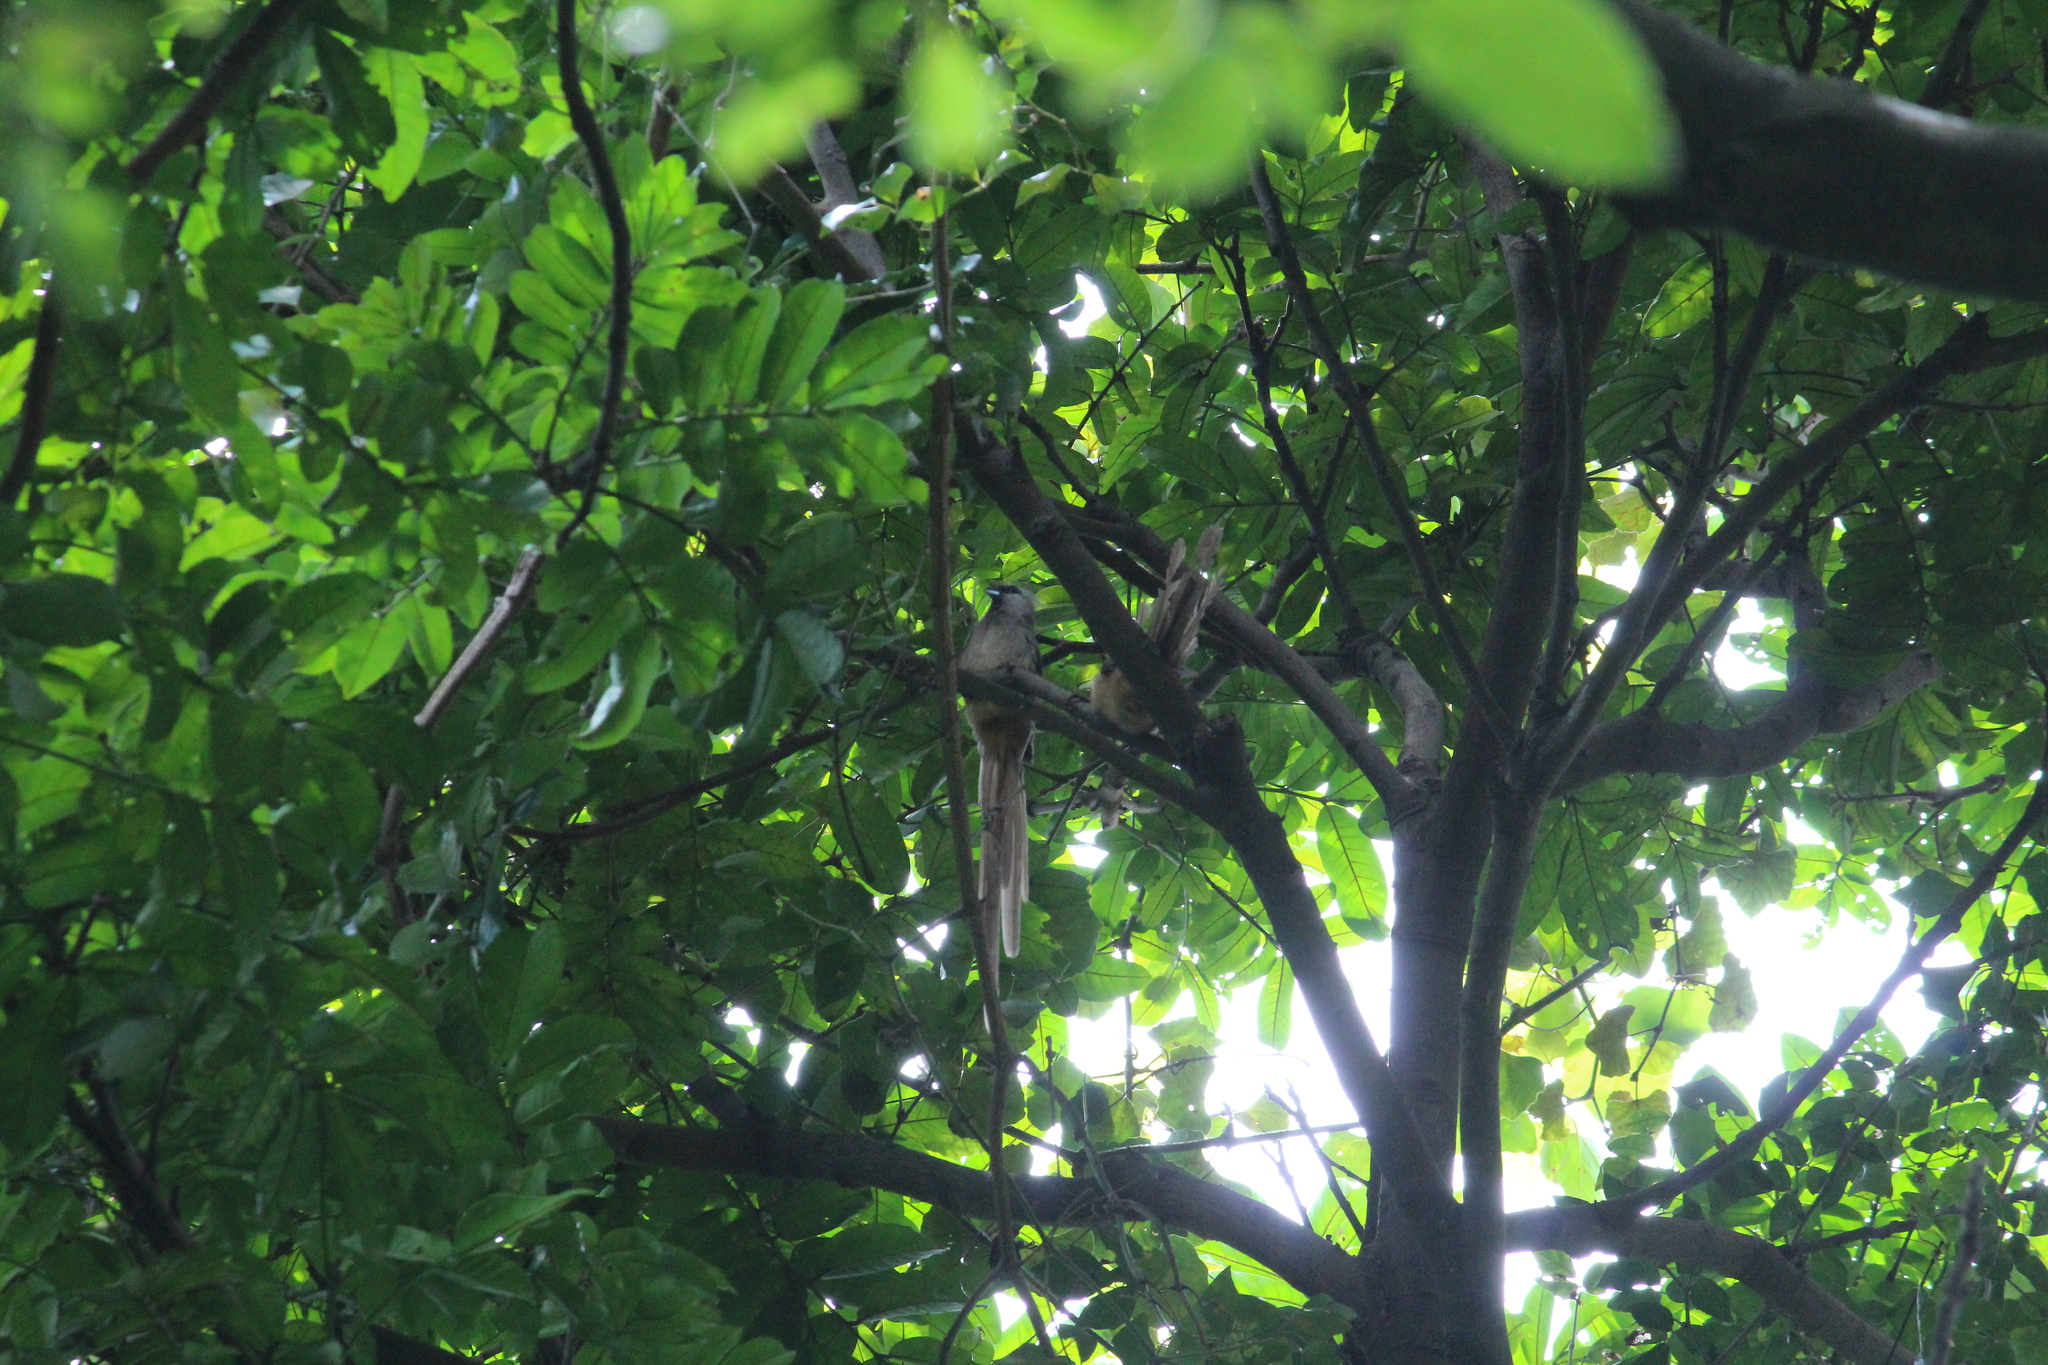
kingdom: Animalia
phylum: Chordata
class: Aves
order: Coliiformes
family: Coliidae
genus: Colius
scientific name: Colius striatus
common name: Speckled mousebird
